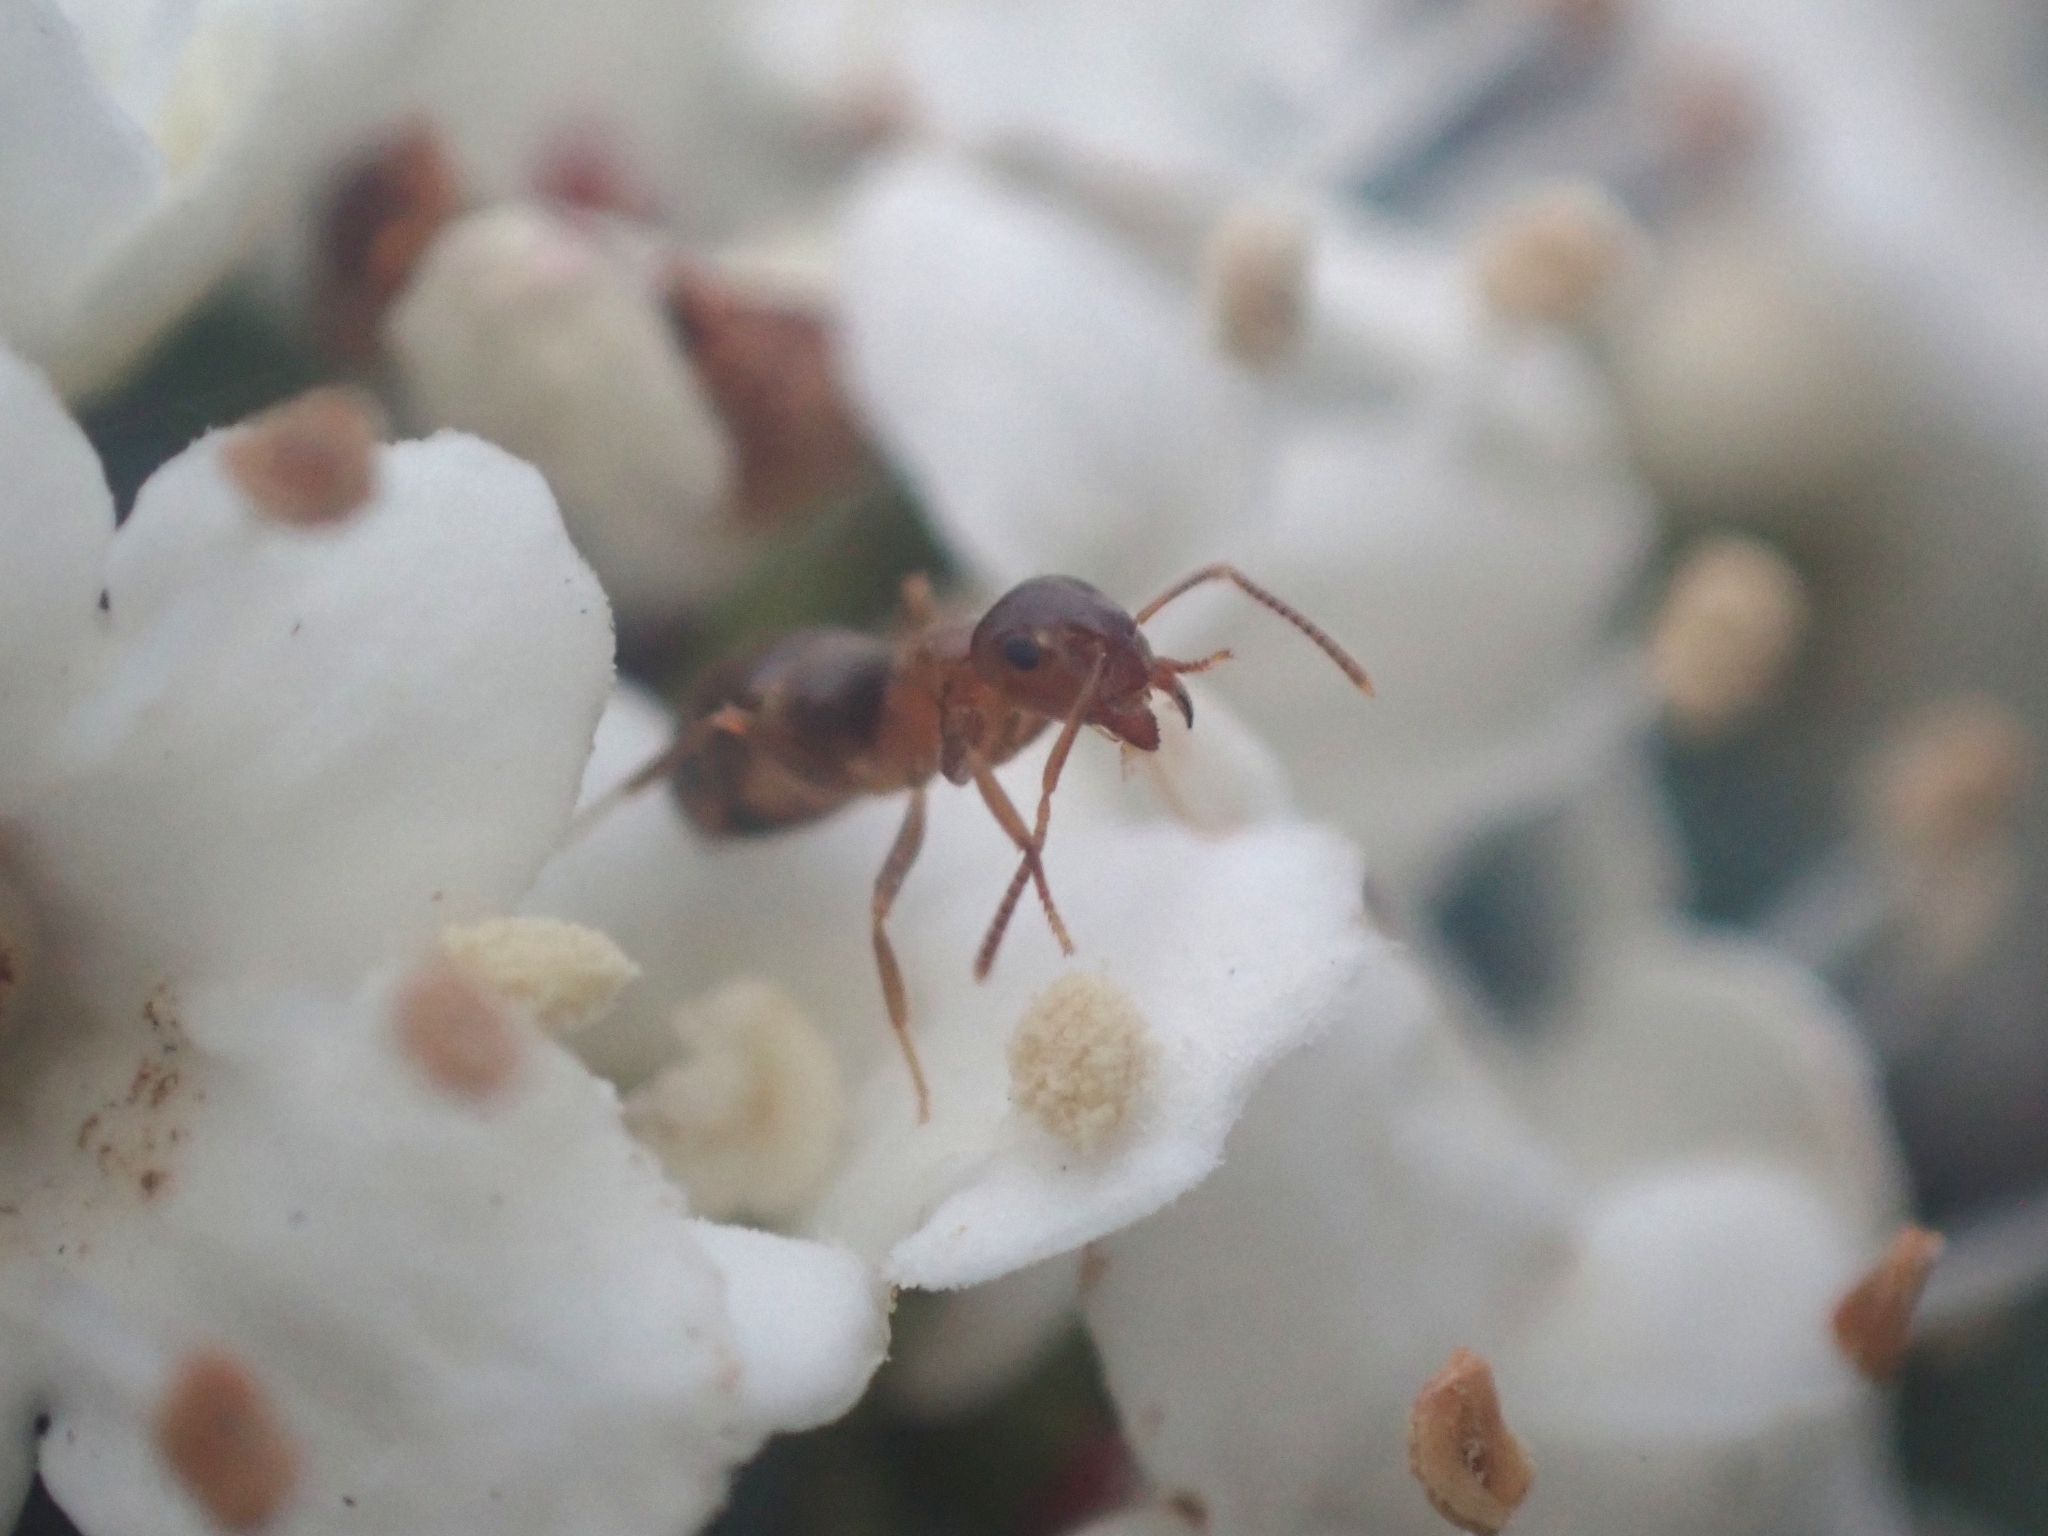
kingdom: Animalia
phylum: Arthropoda
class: Insecta
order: Hymenoptera
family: Formicidae
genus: Lasius
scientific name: Lasius brunneus
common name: Brown ant
